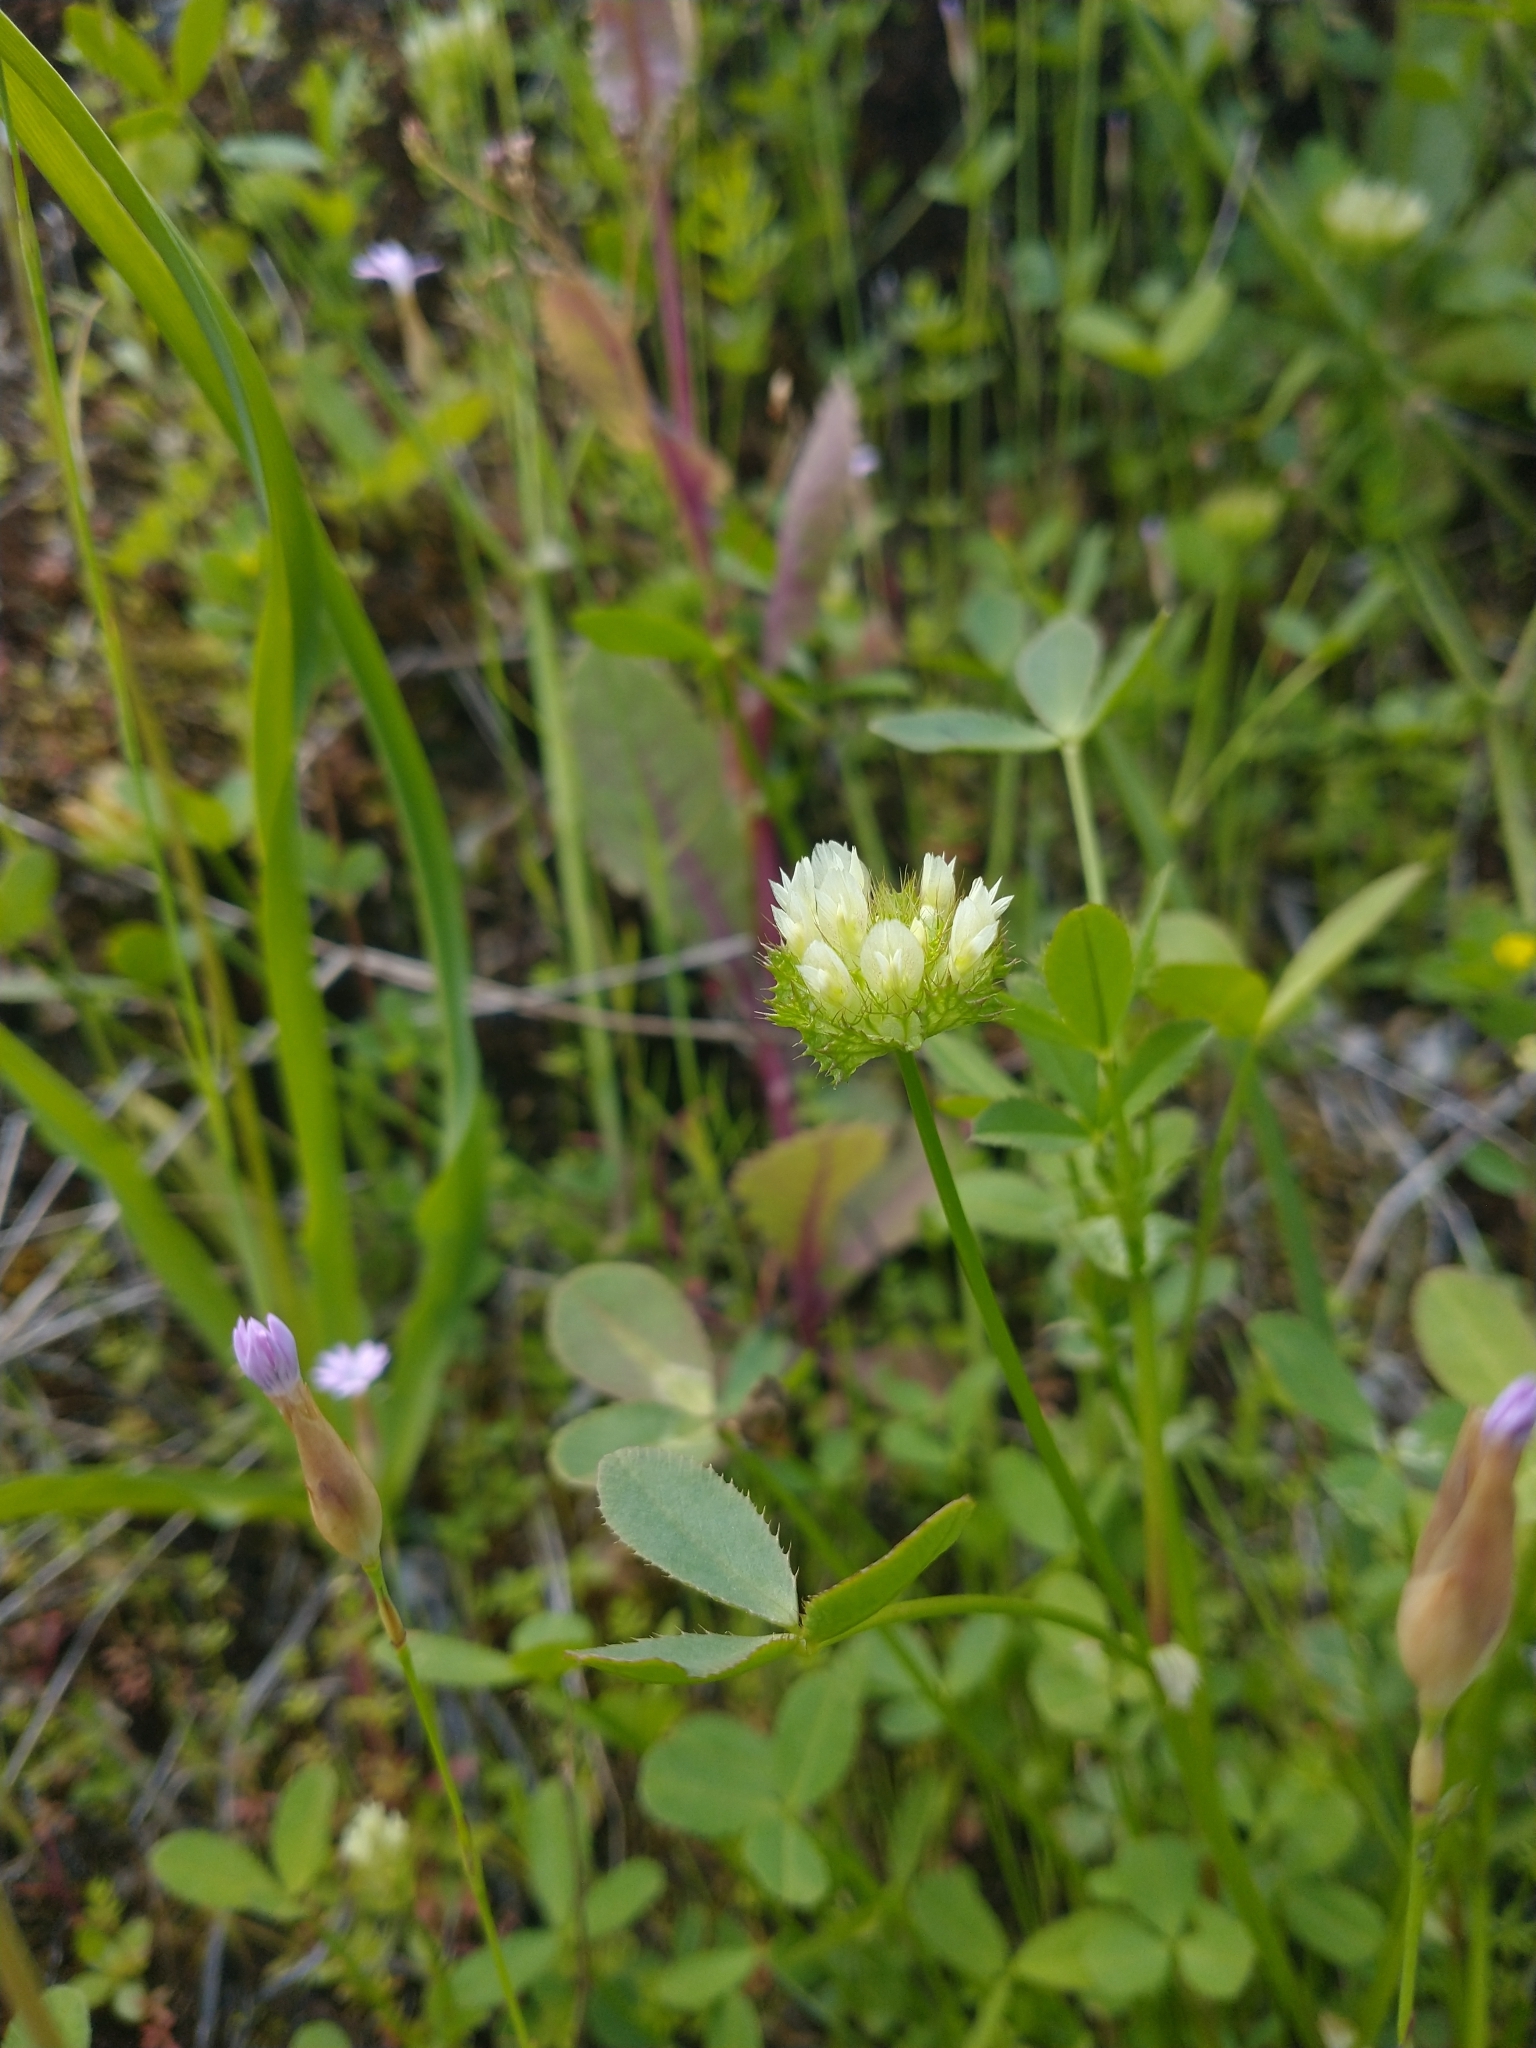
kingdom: Plantae
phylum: Tracheophyta
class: Magnoliopsida
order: Fabales
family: Fabaceae
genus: Trifolium
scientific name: Trifolium cyathiferum
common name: Bowl clover
